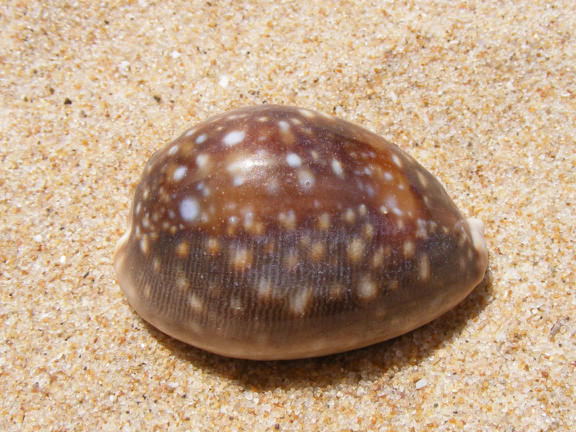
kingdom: Animalia
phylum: Mollusca
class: Gastropoda
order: Littorinimorpha
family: Cypraeidae
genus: Lyncina
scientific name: Lyncina vitellus
